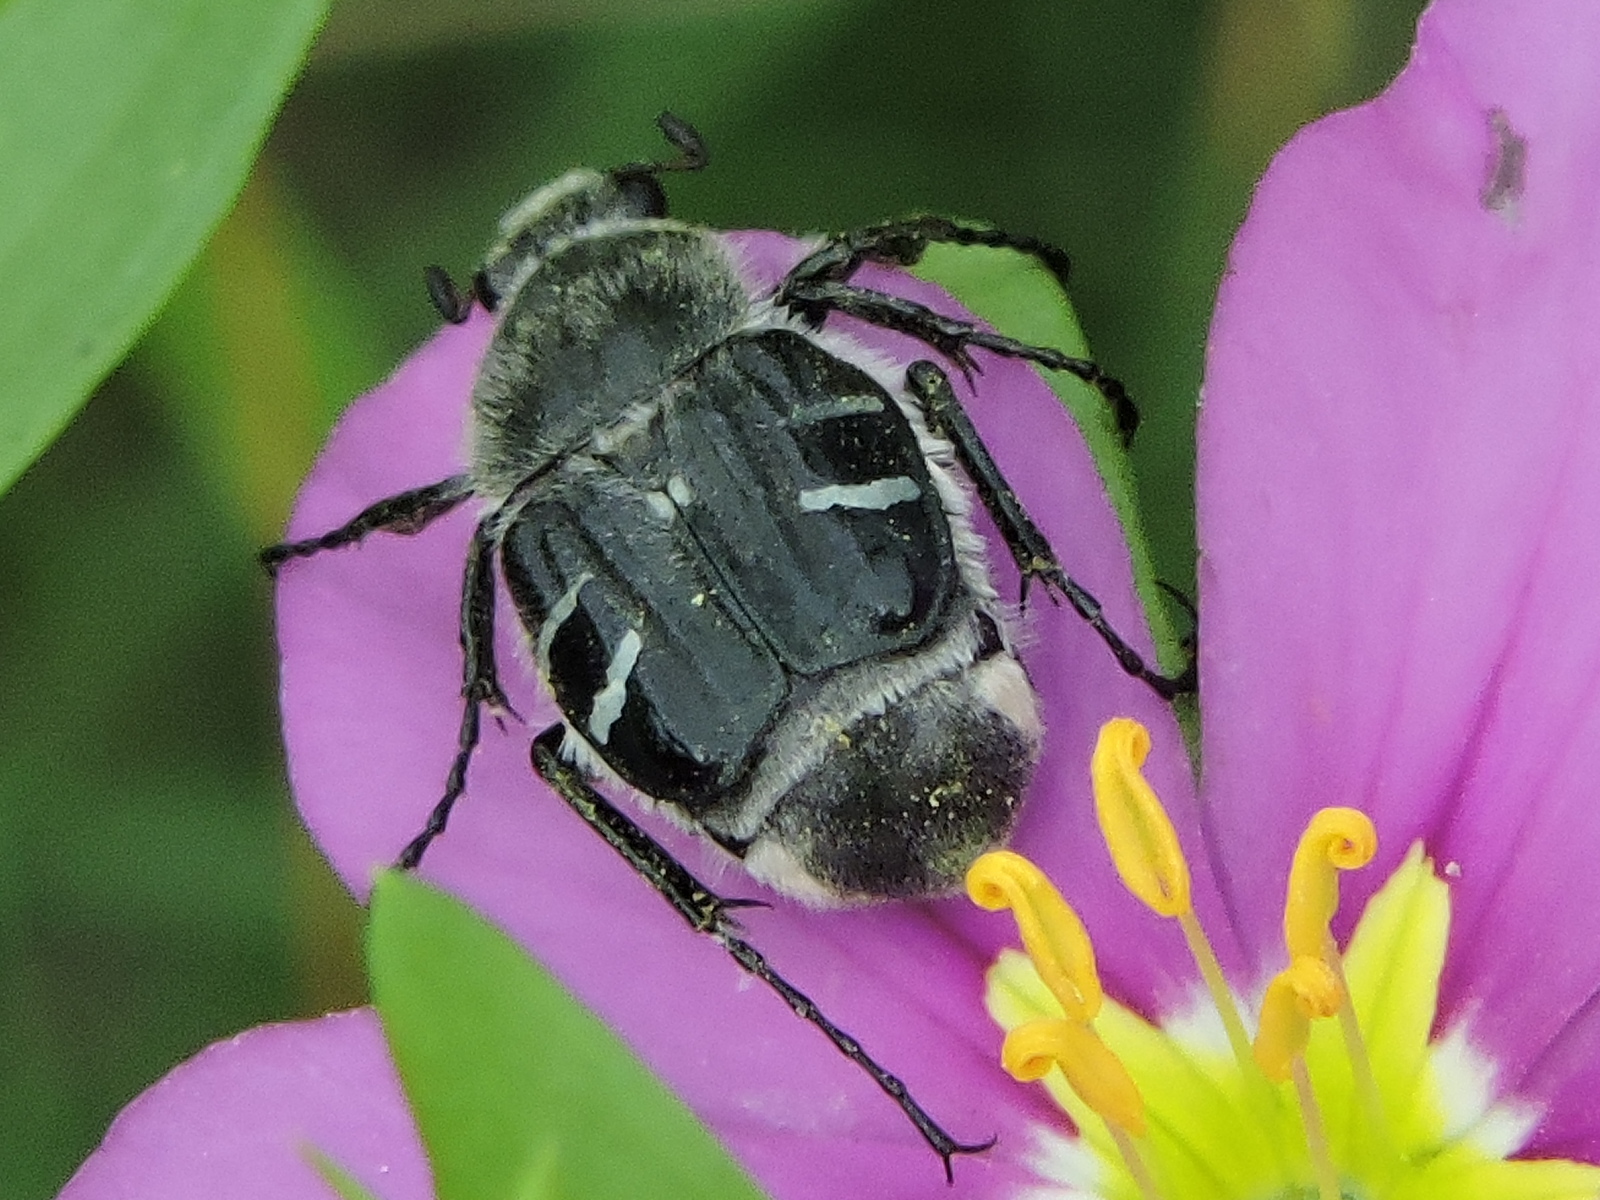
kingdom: Animalia
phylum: Arthropoda
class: Insecta
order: Coleoptera
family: Scarabaeidae
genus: Trichiotinus
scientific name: Trichiotinus texanus
